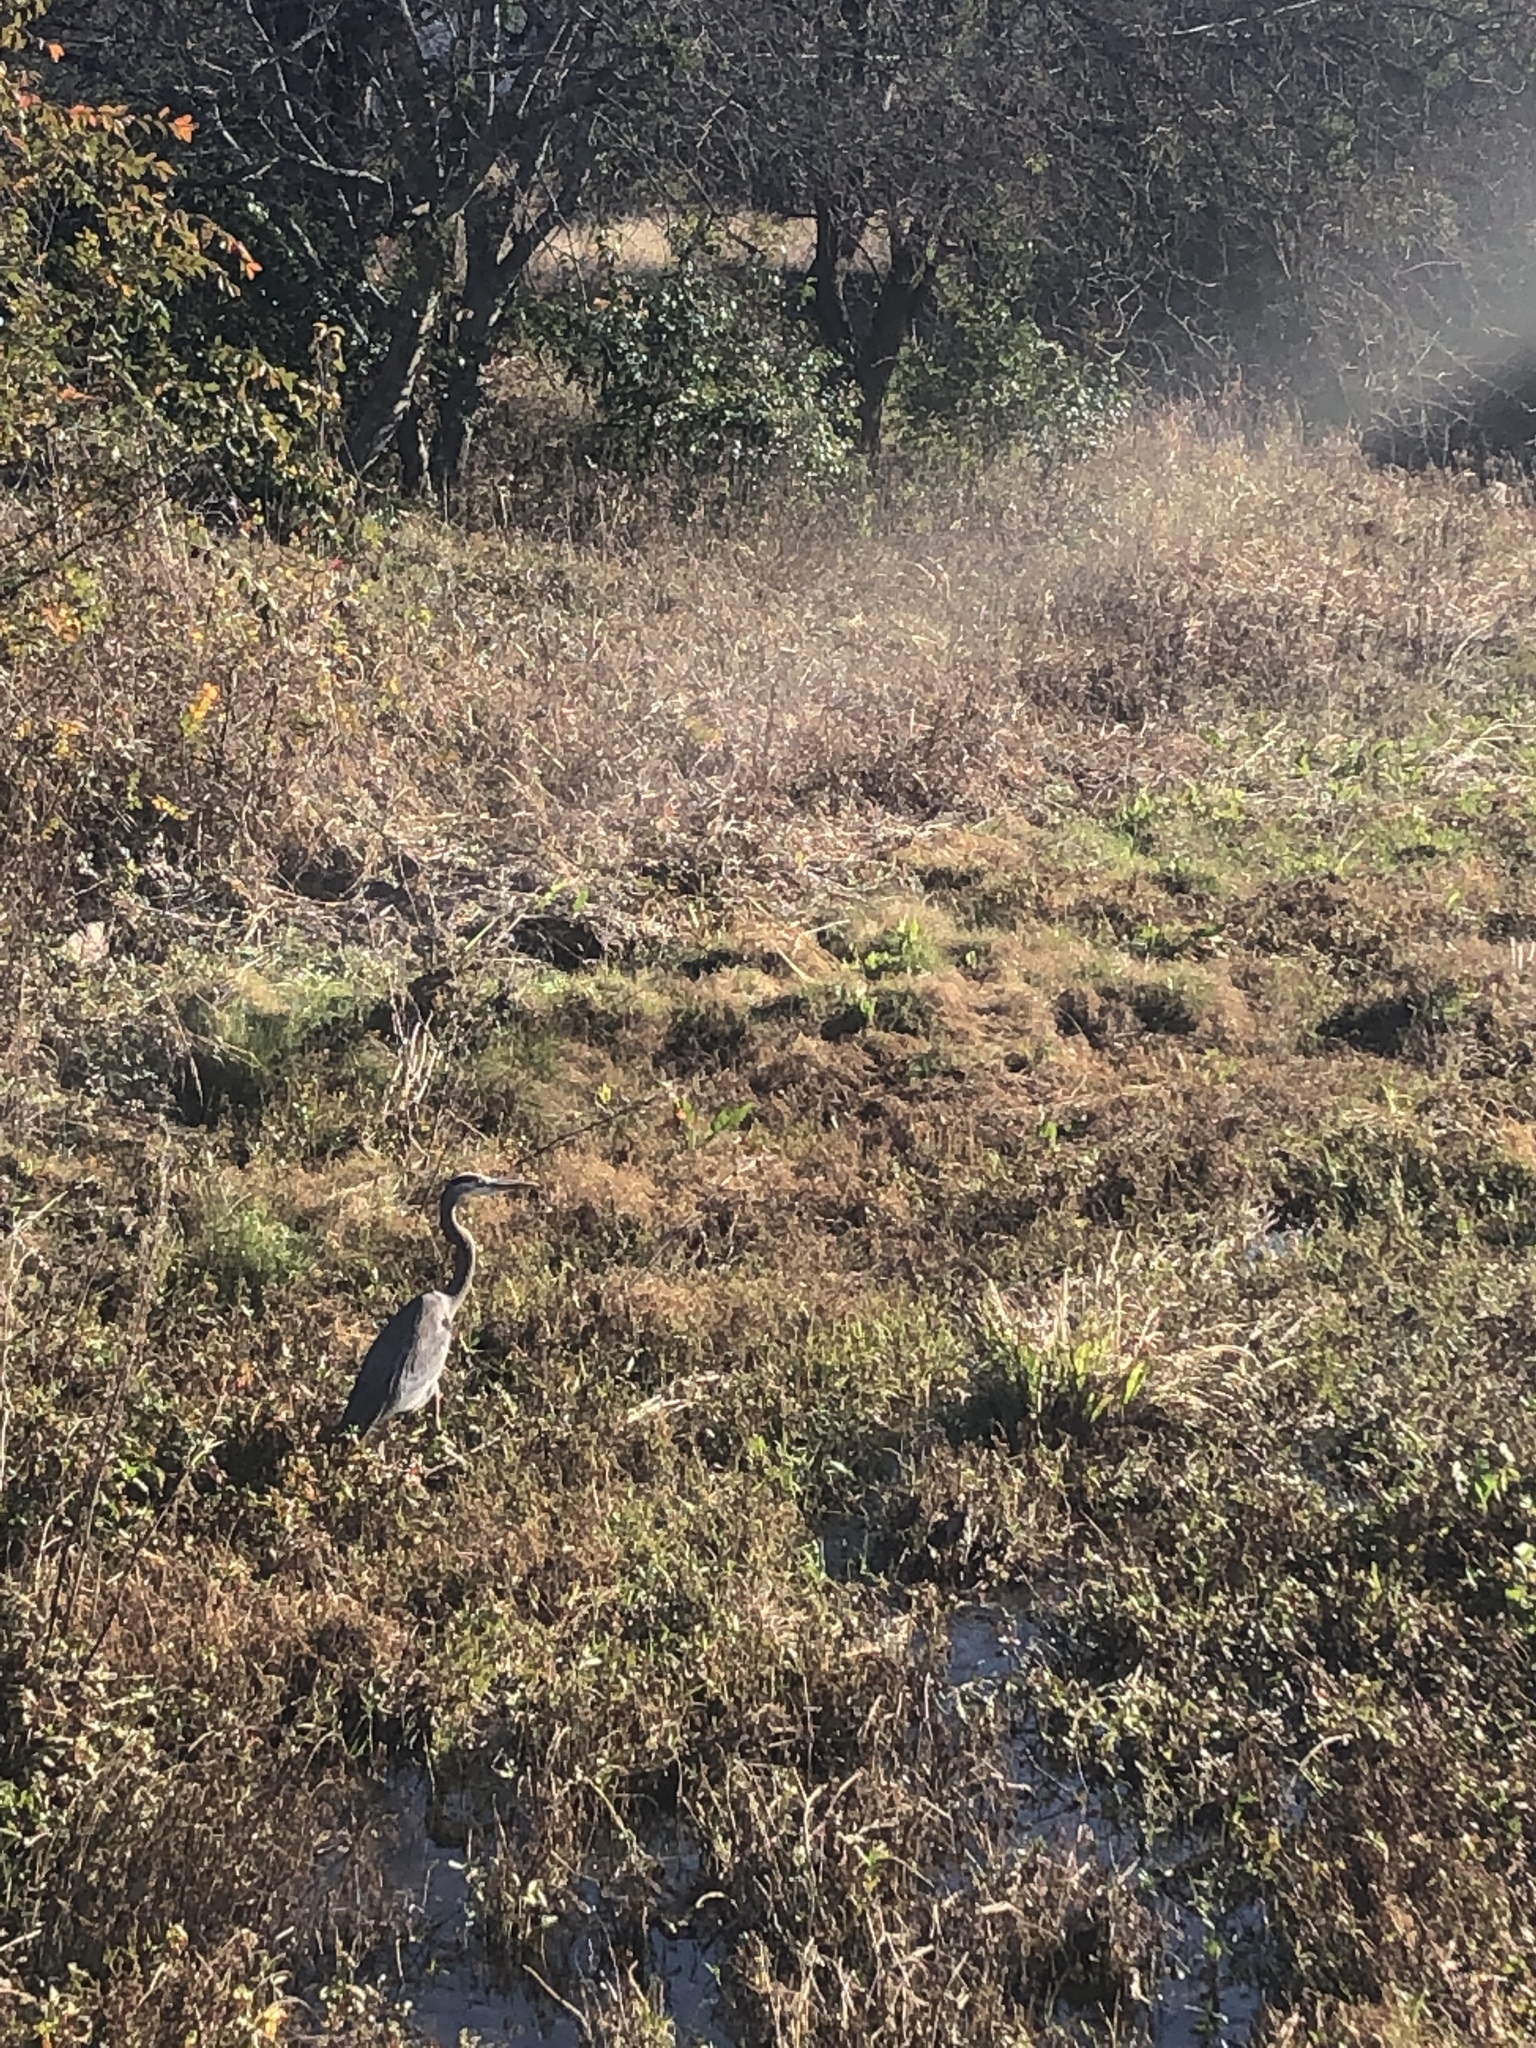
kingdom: Animalia
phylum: Chordata
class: Aves
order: Pelecaniformes
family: Ardeidae
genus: Ardea
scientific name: Ardea herodias
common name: Great blue heron
